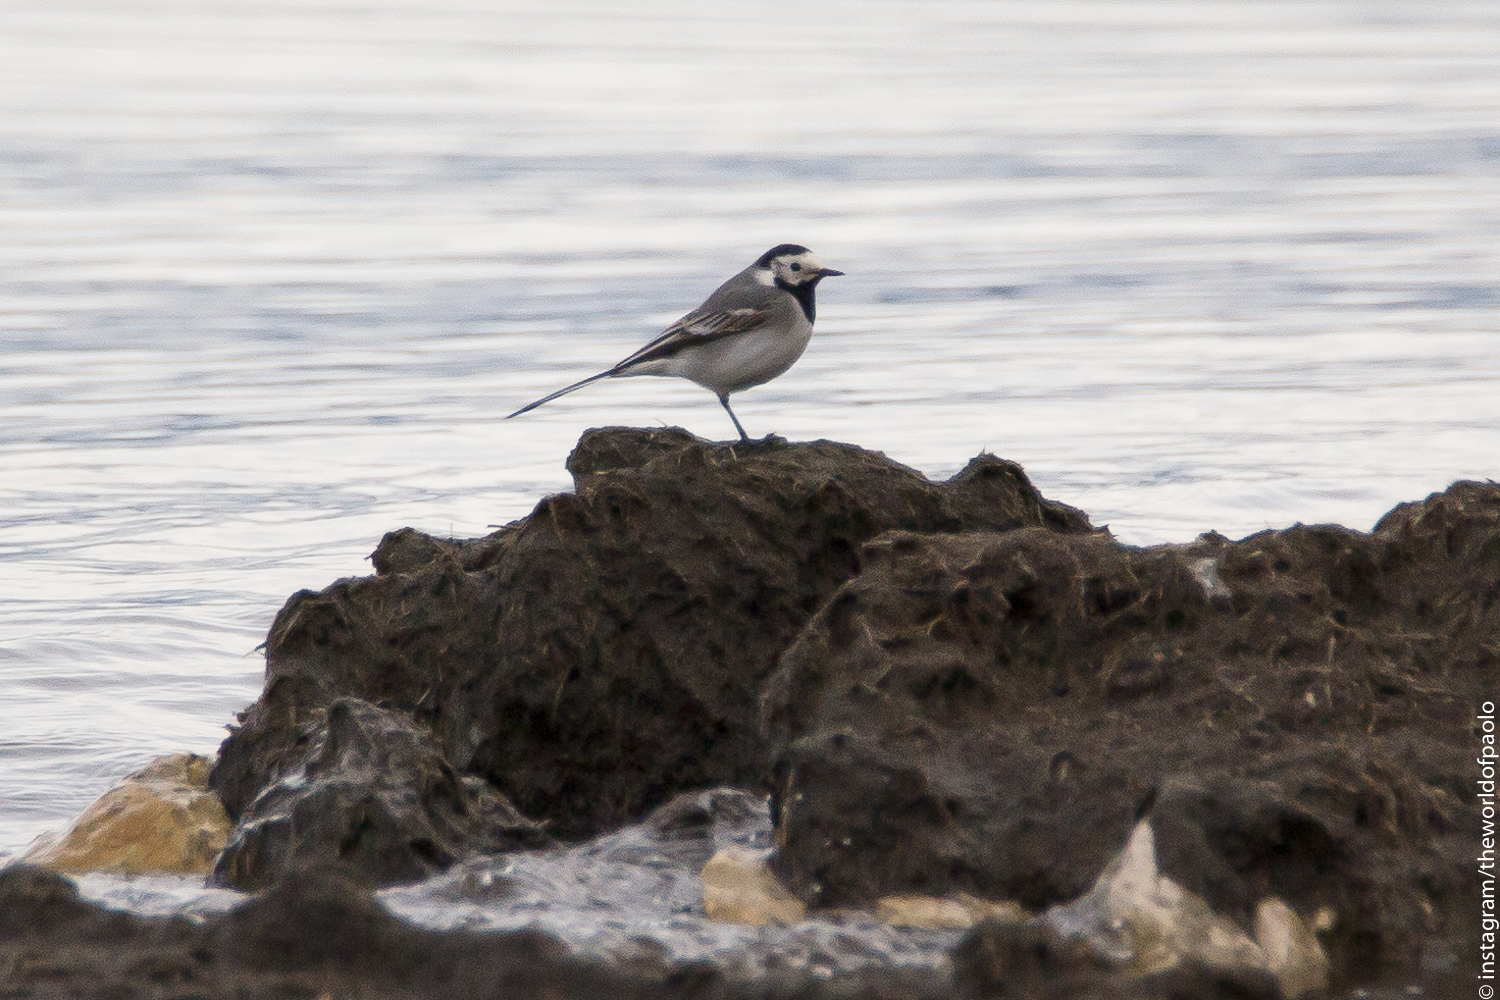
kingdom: Animalia
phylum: Chordata
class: Aves
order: Passeriformes
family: Motacillidae
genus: Motacilla
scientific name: Motacilla alba
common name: White wagtail
